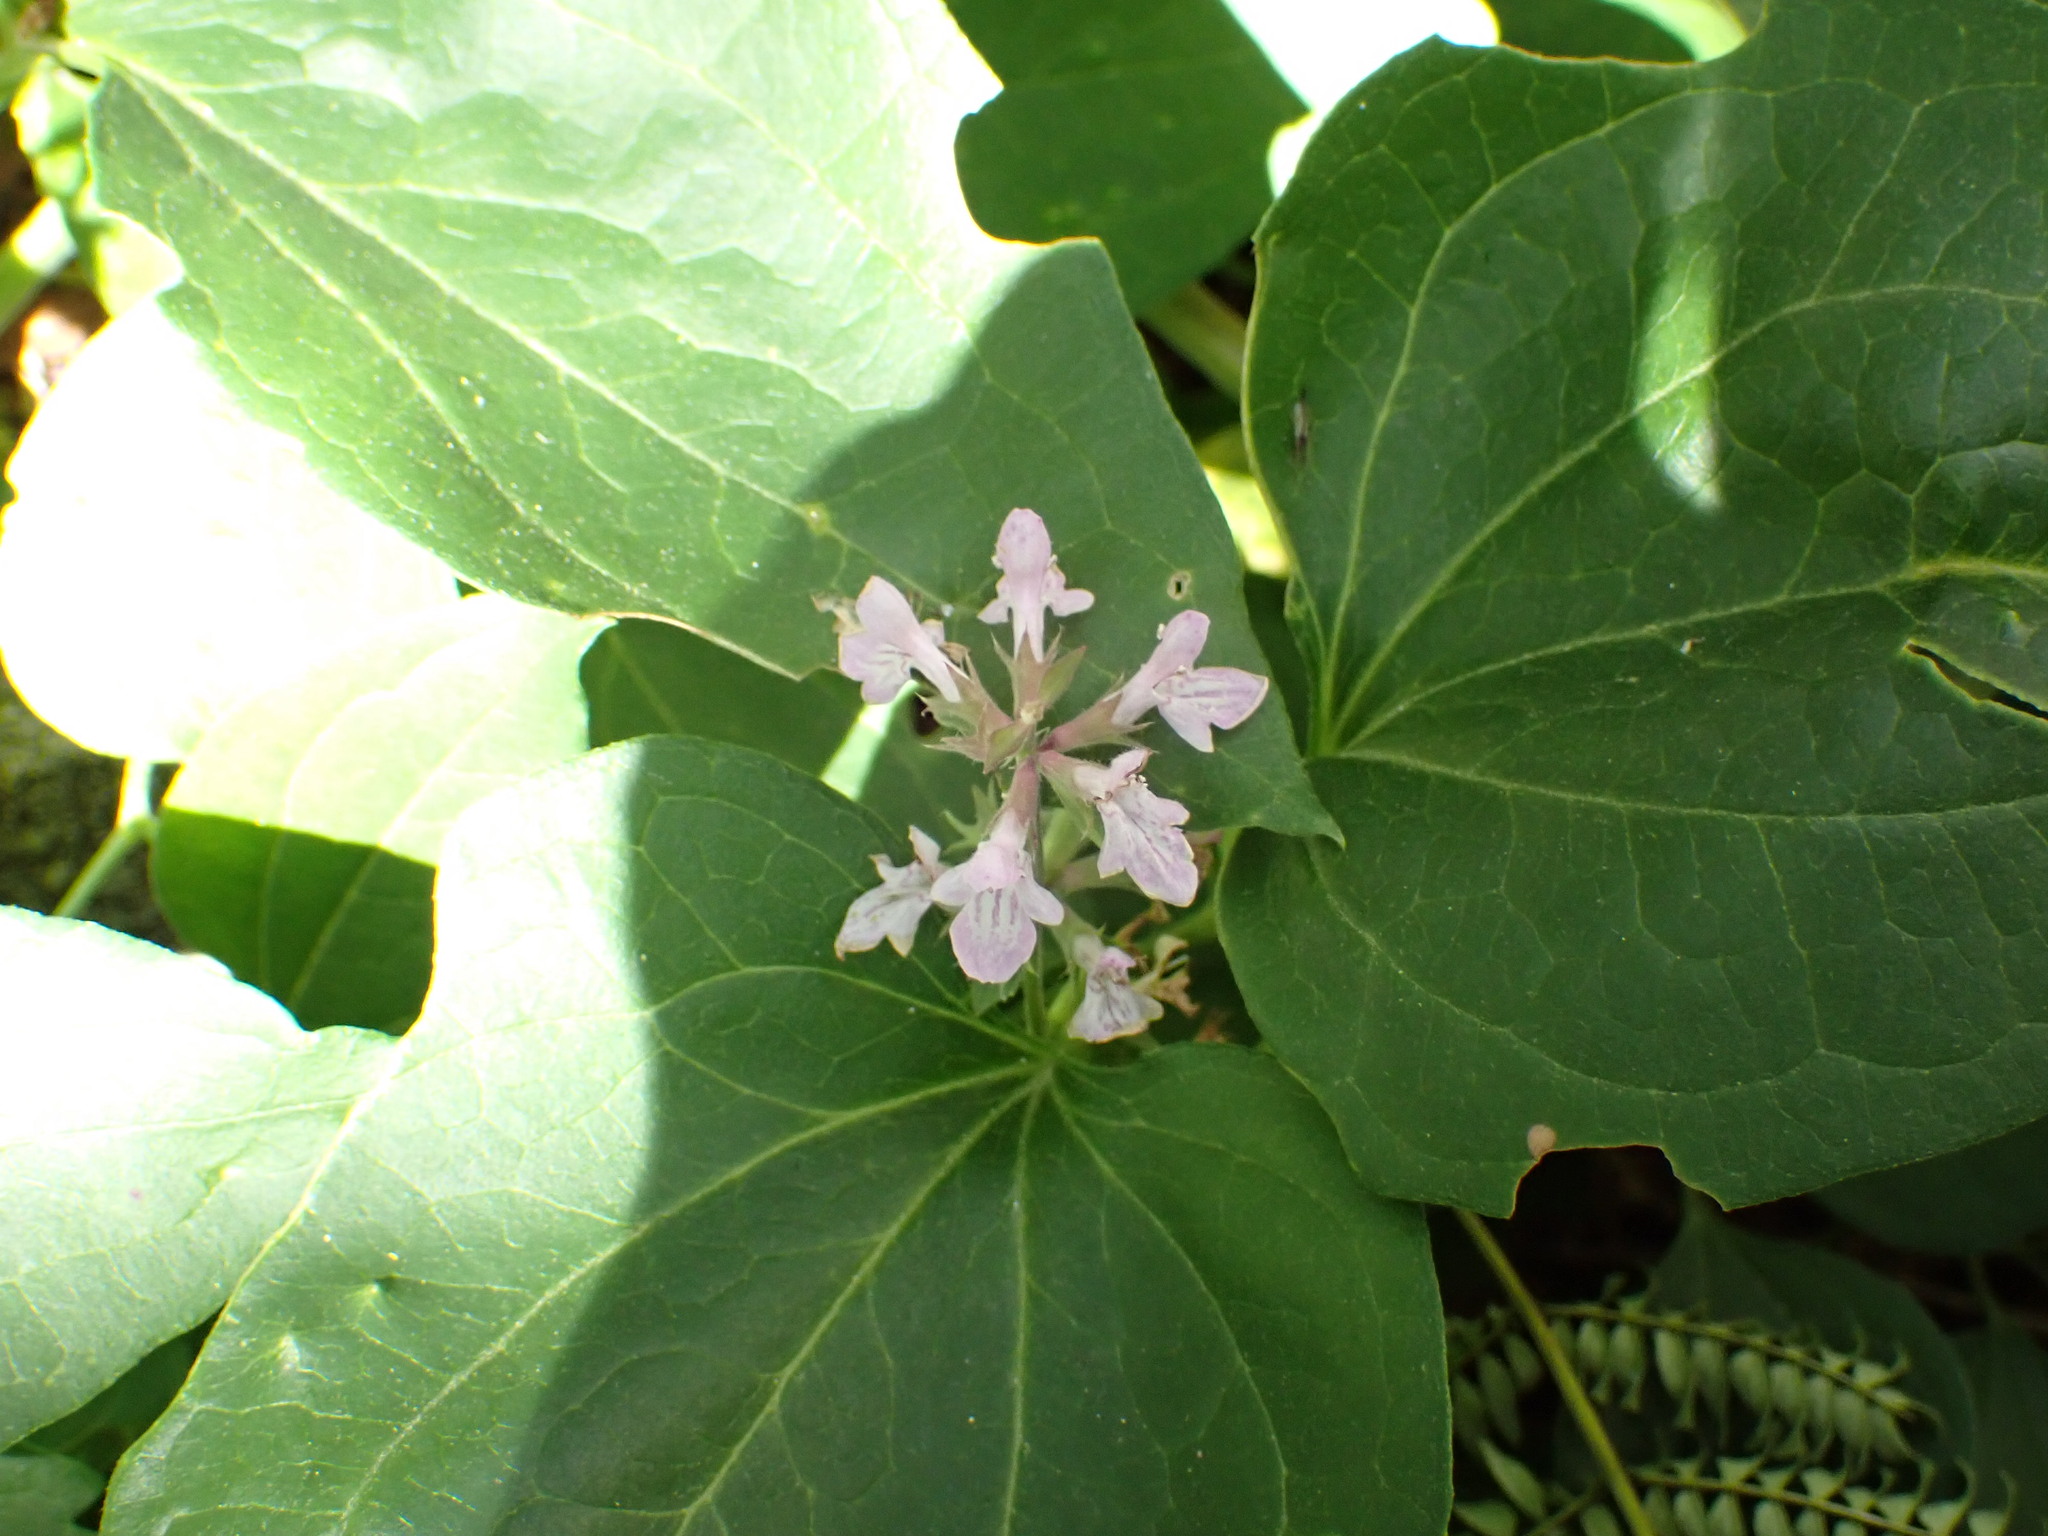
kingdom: Plantae
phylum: Tracheophyta
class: Magnoliopsida
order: Lamiales
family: Lamiaceae
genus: Stachys
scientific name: Stachys floridana
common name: Florida betony
